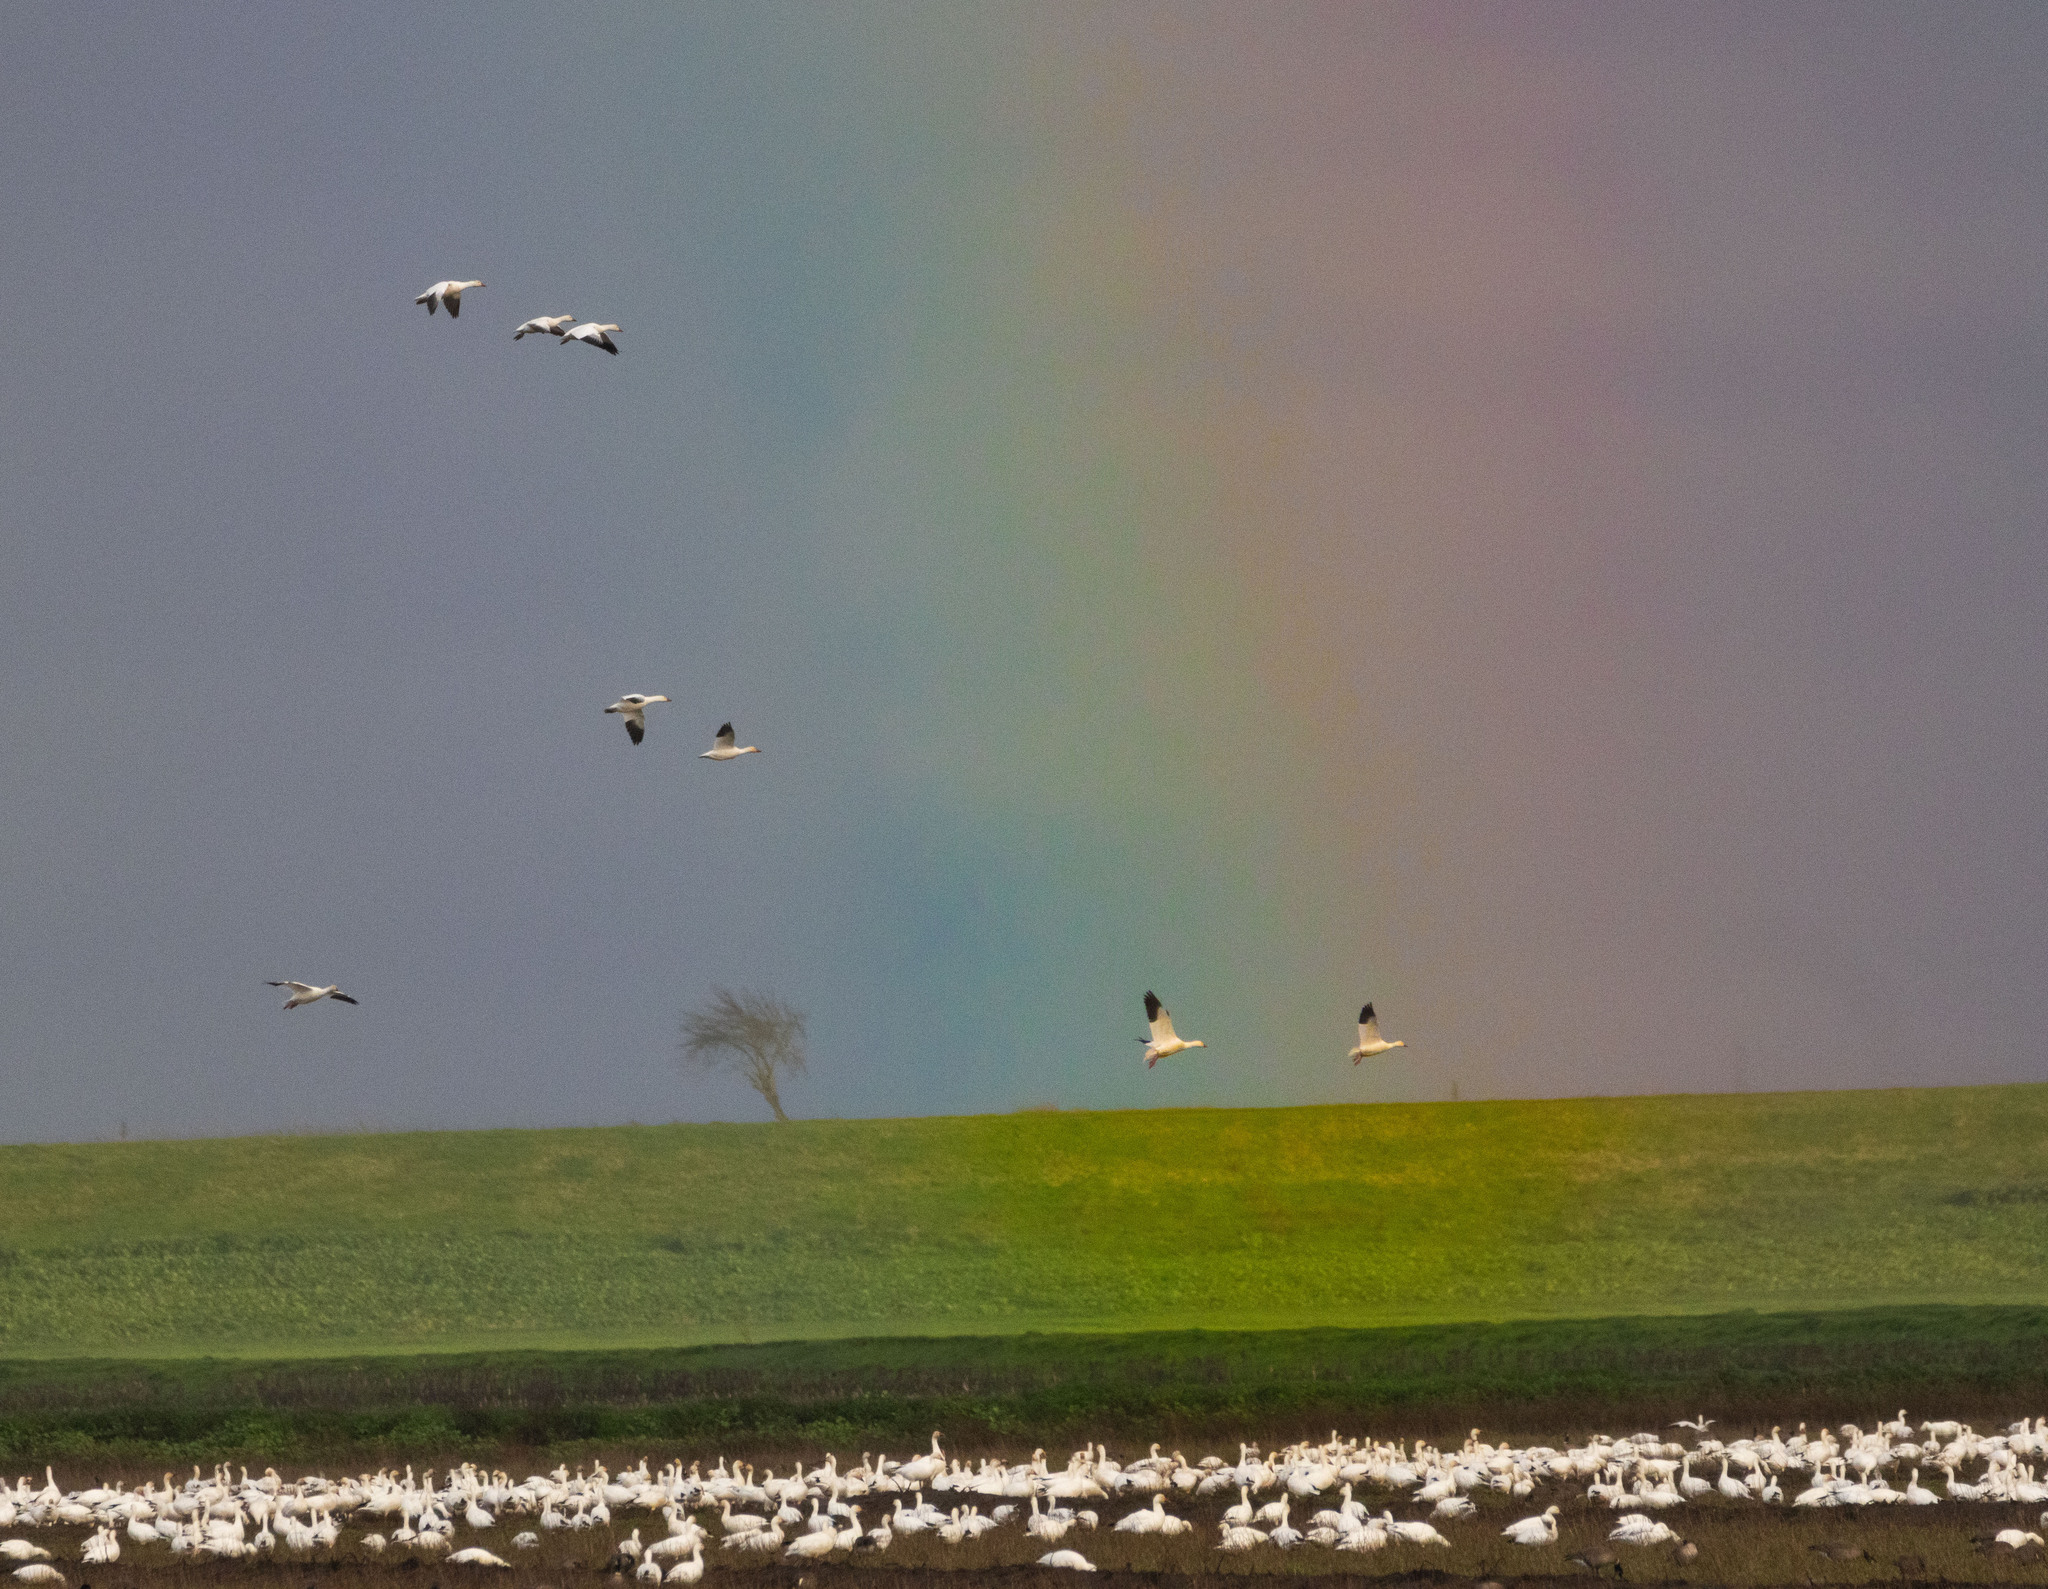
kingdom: Animalia
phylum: Chordata
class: Aves
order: Anseriformes
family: Anatidae
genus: Anser
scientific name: Anser caerulescens
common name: Snow goose
